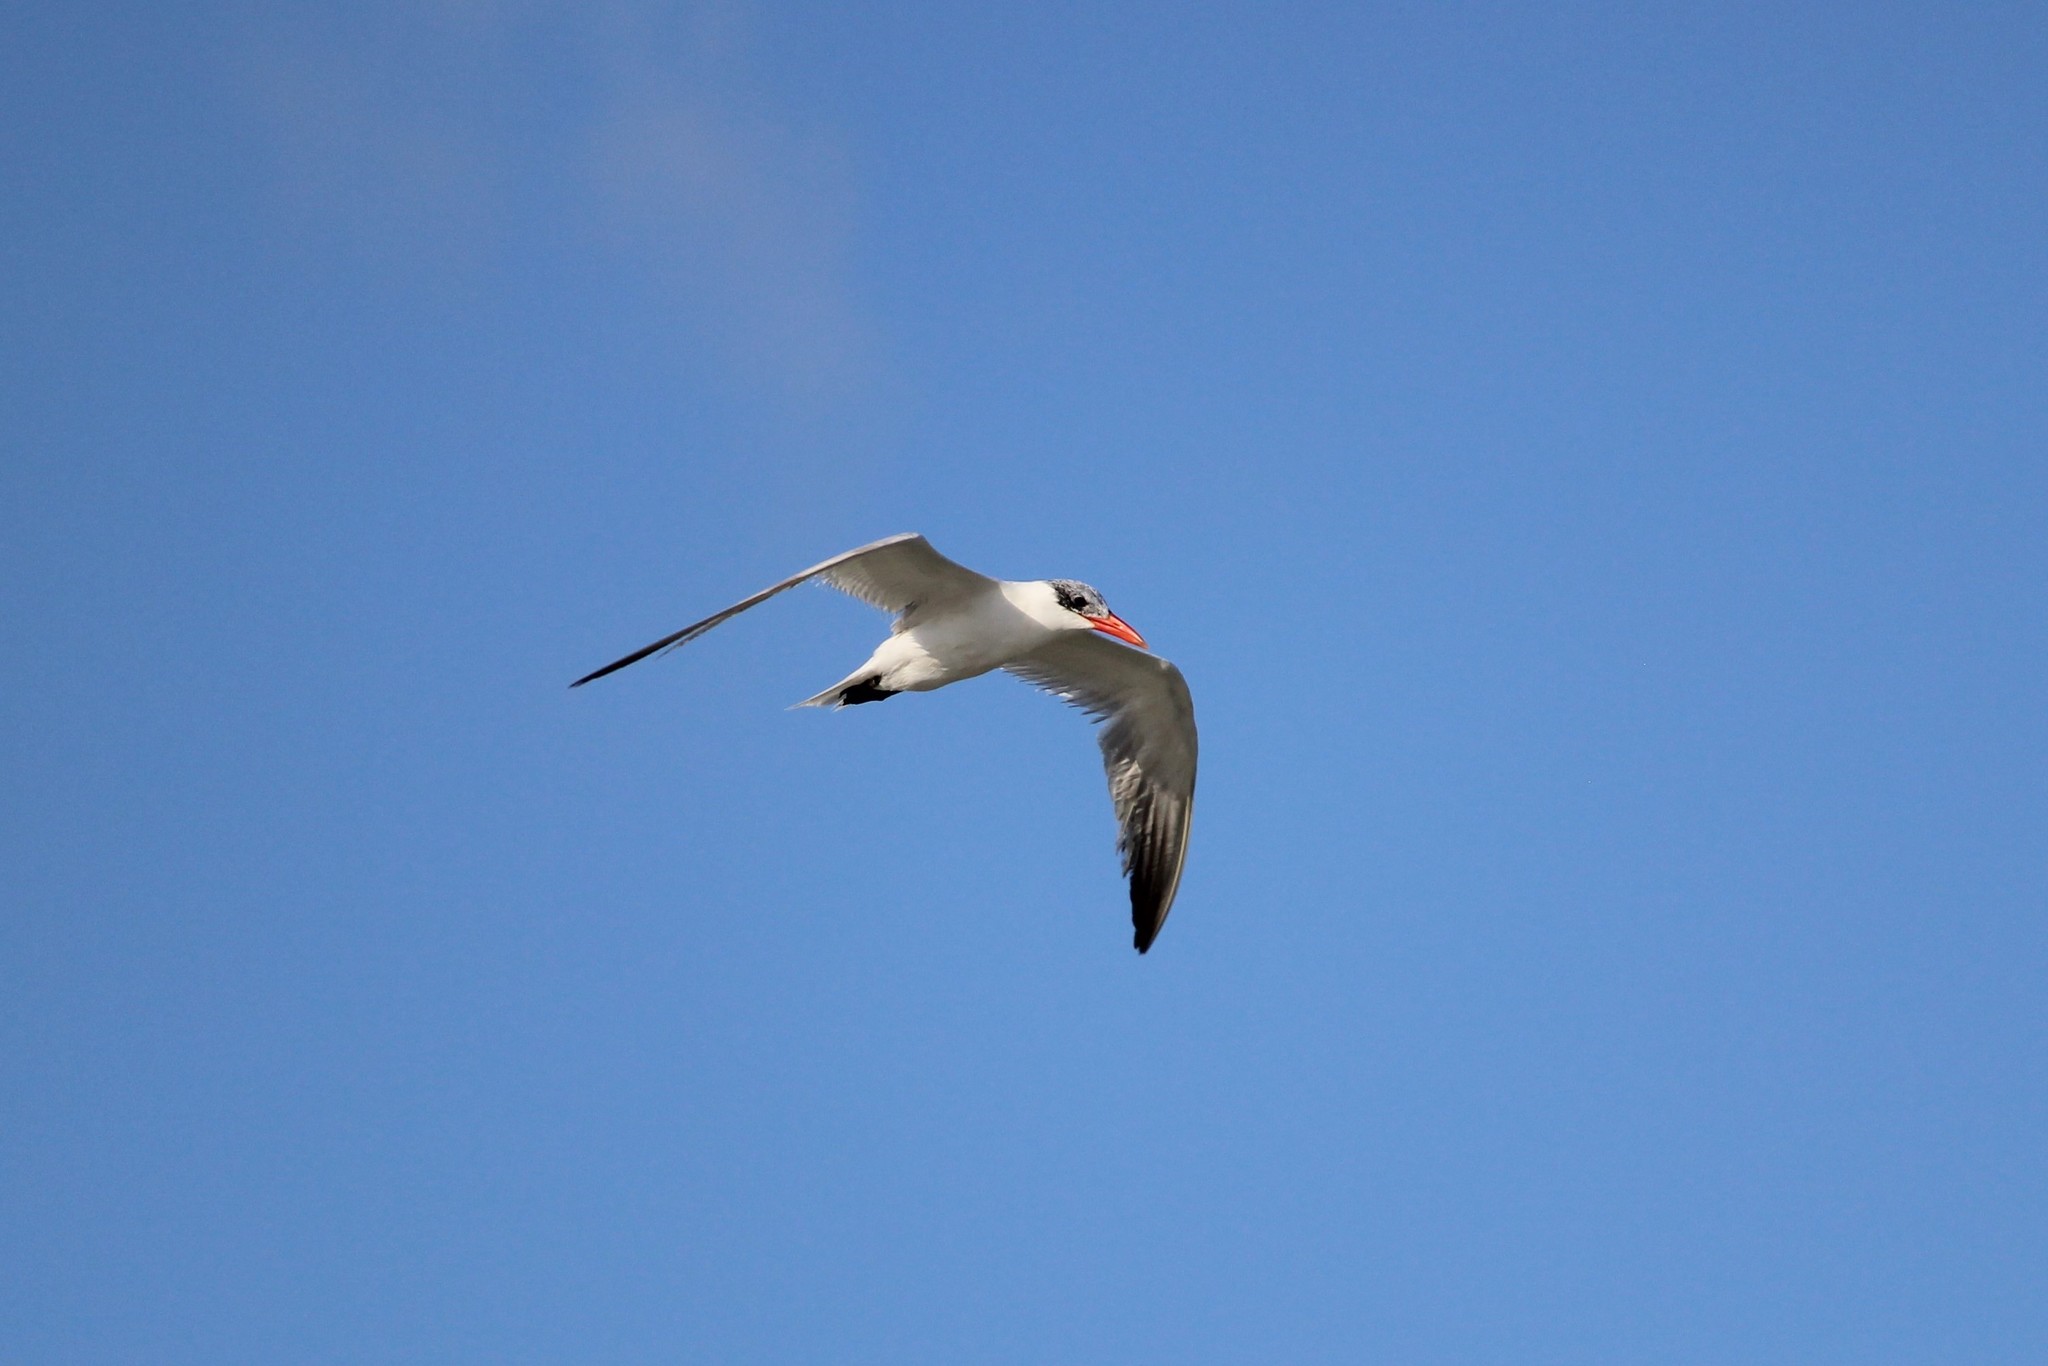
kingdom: Animalia
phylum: Chordata
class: Aves
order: Charadriiformes
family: Laridae
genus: Hydroprogne
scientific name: Hydroprogne caspia
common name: Caspian tern
